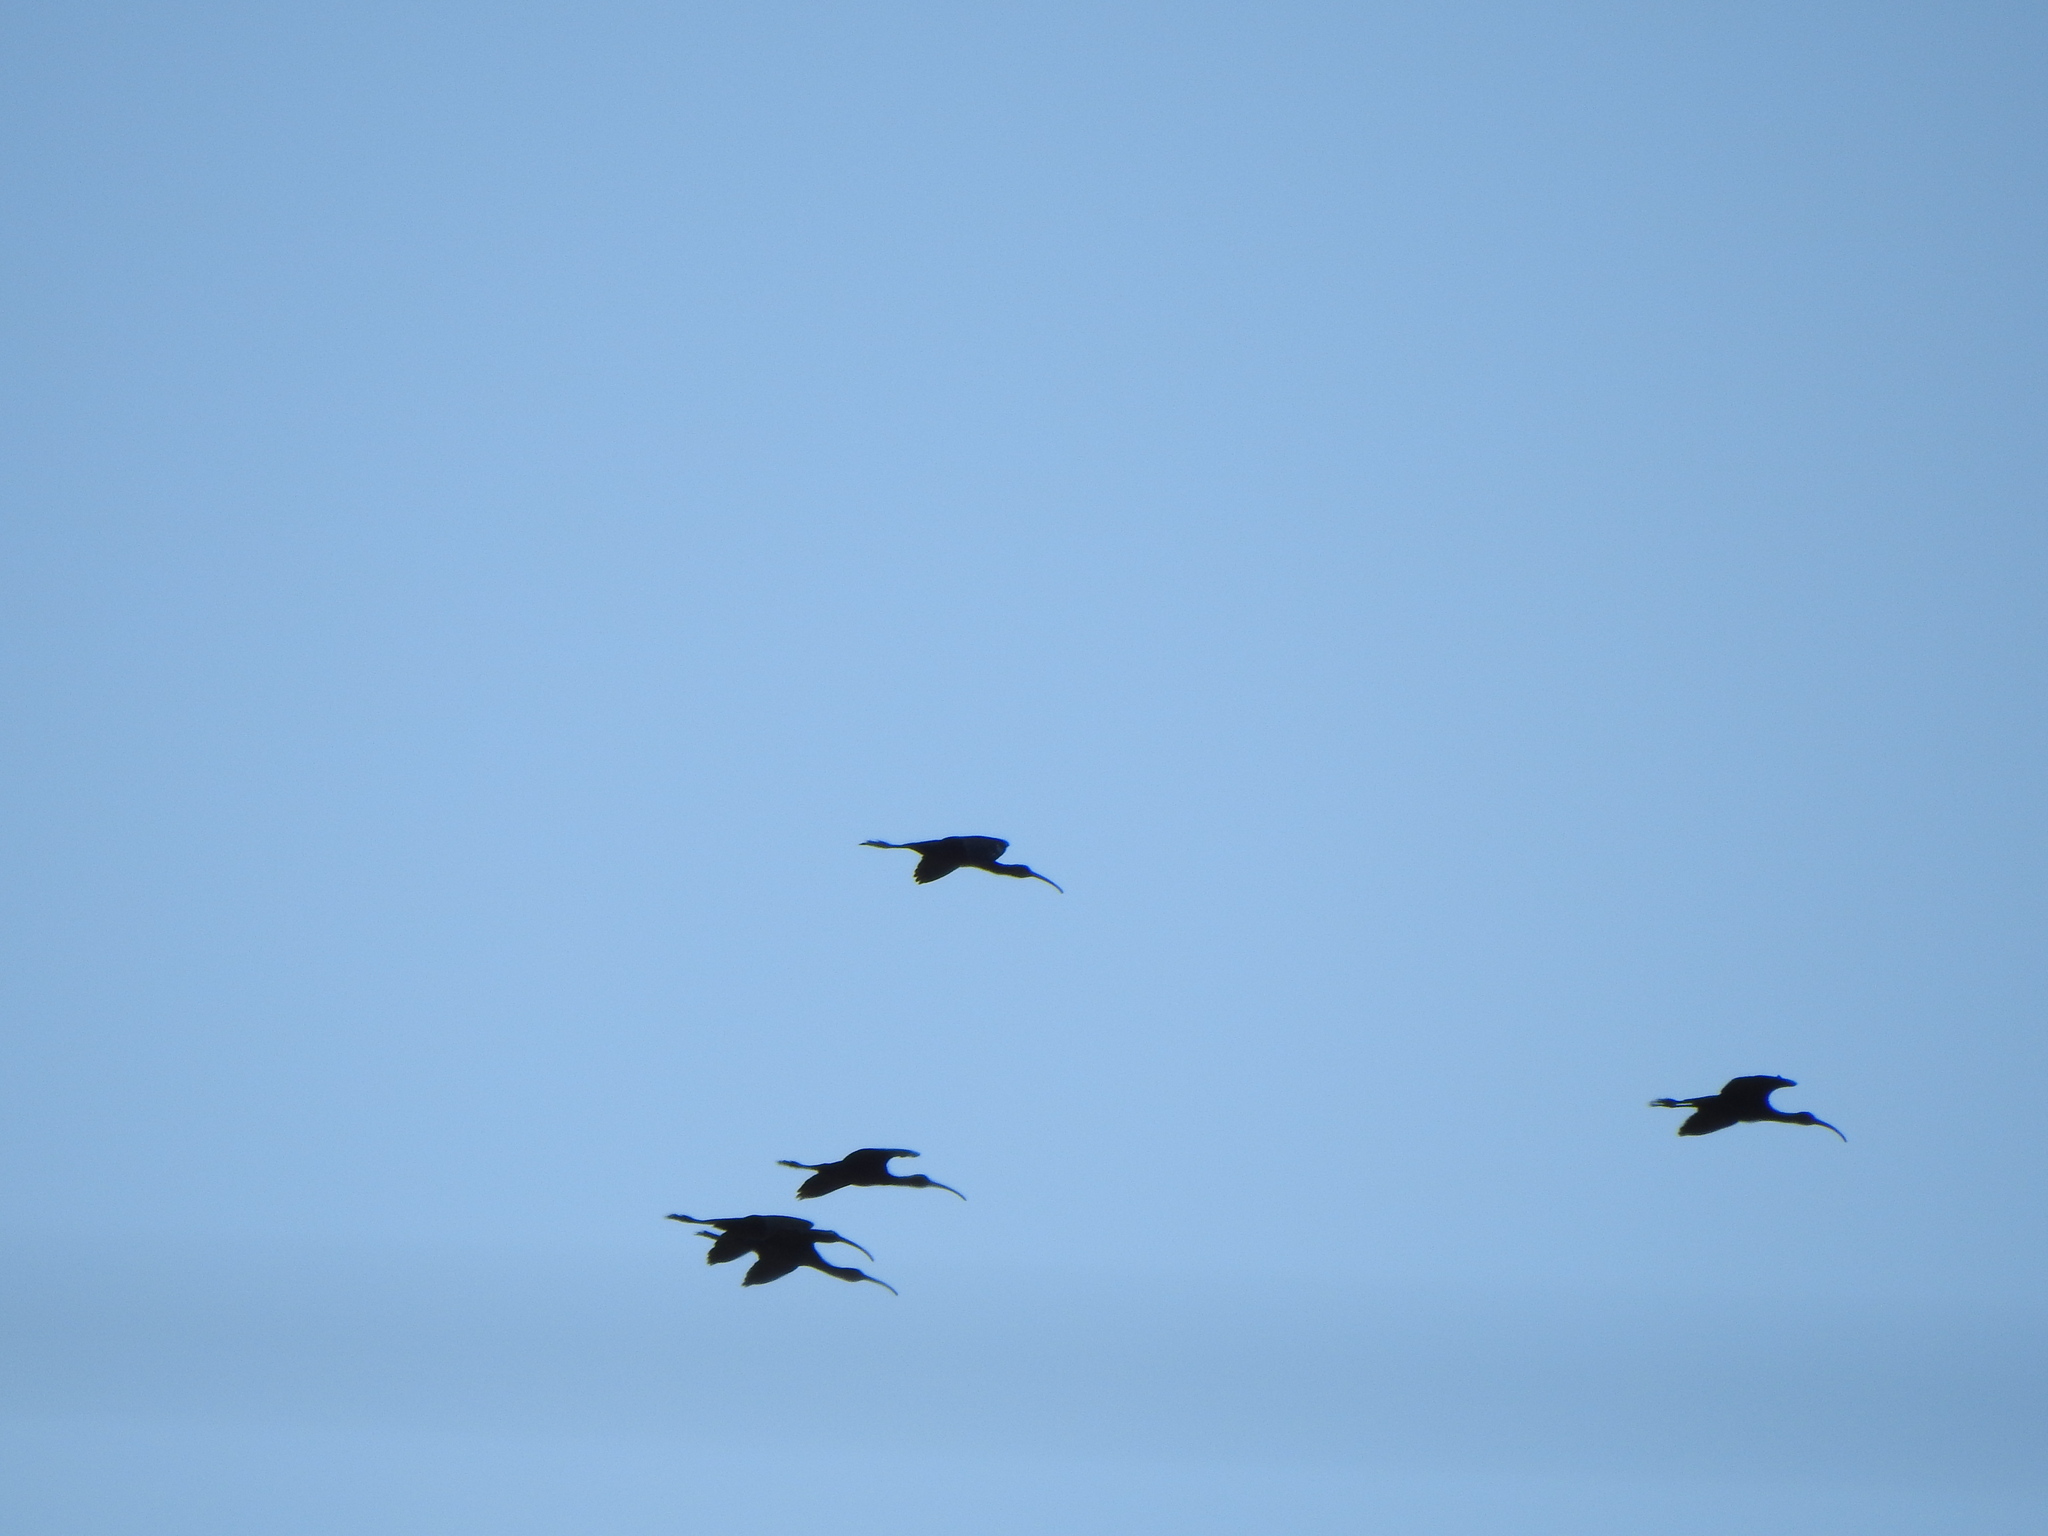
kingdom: Animalia
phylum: Chordata
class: Aves
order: Pelecaniformes
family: Threskiornithidae
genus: Plegadis
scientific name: Plegadis chihi
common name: White-faced ibis
